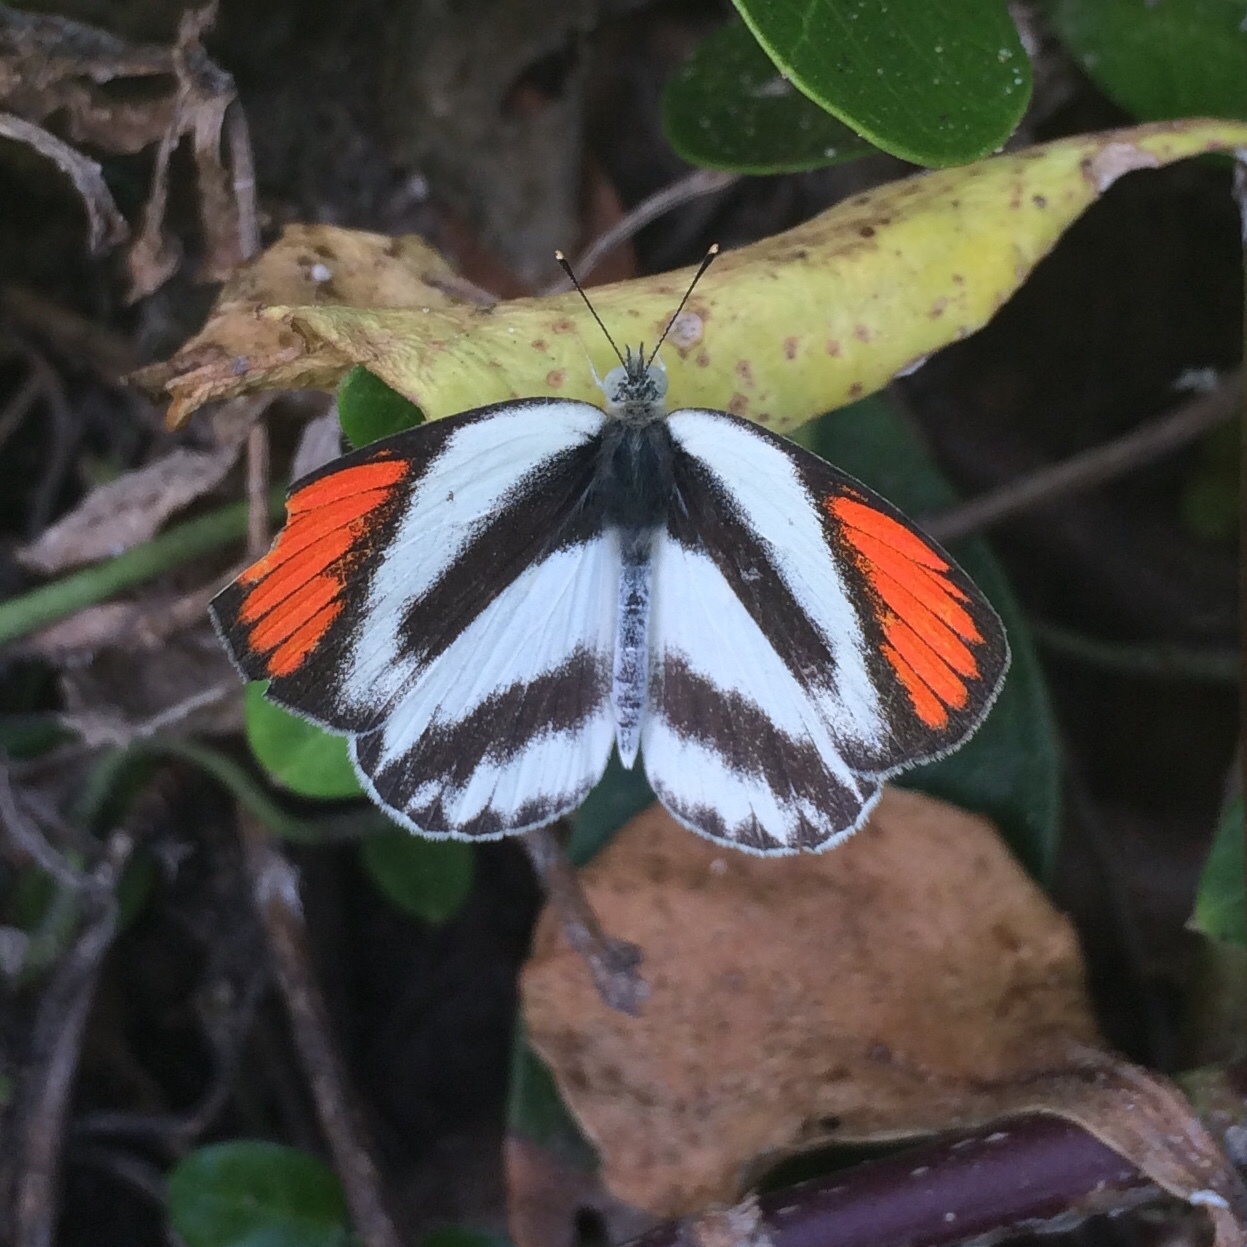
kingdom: Animalia
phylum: Arthropoda
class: Insecta
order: Lepidoptera
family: Pieridae
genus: Colotis
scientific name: Colotis euippe
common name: Round-winged orange tip
